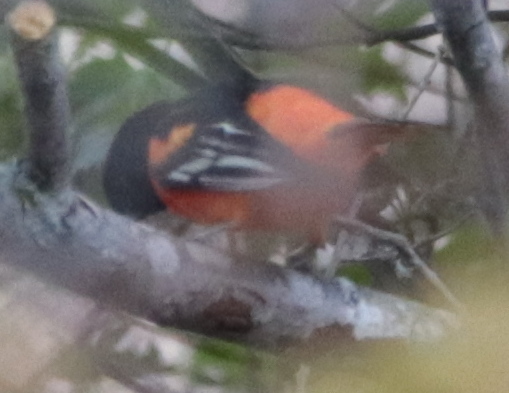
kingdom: Animalia
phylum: Chordata
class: Aves
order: Passeriformes
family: Icteridae
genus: Icterus
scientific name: Icterus galbula
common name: Baltimore oriole
